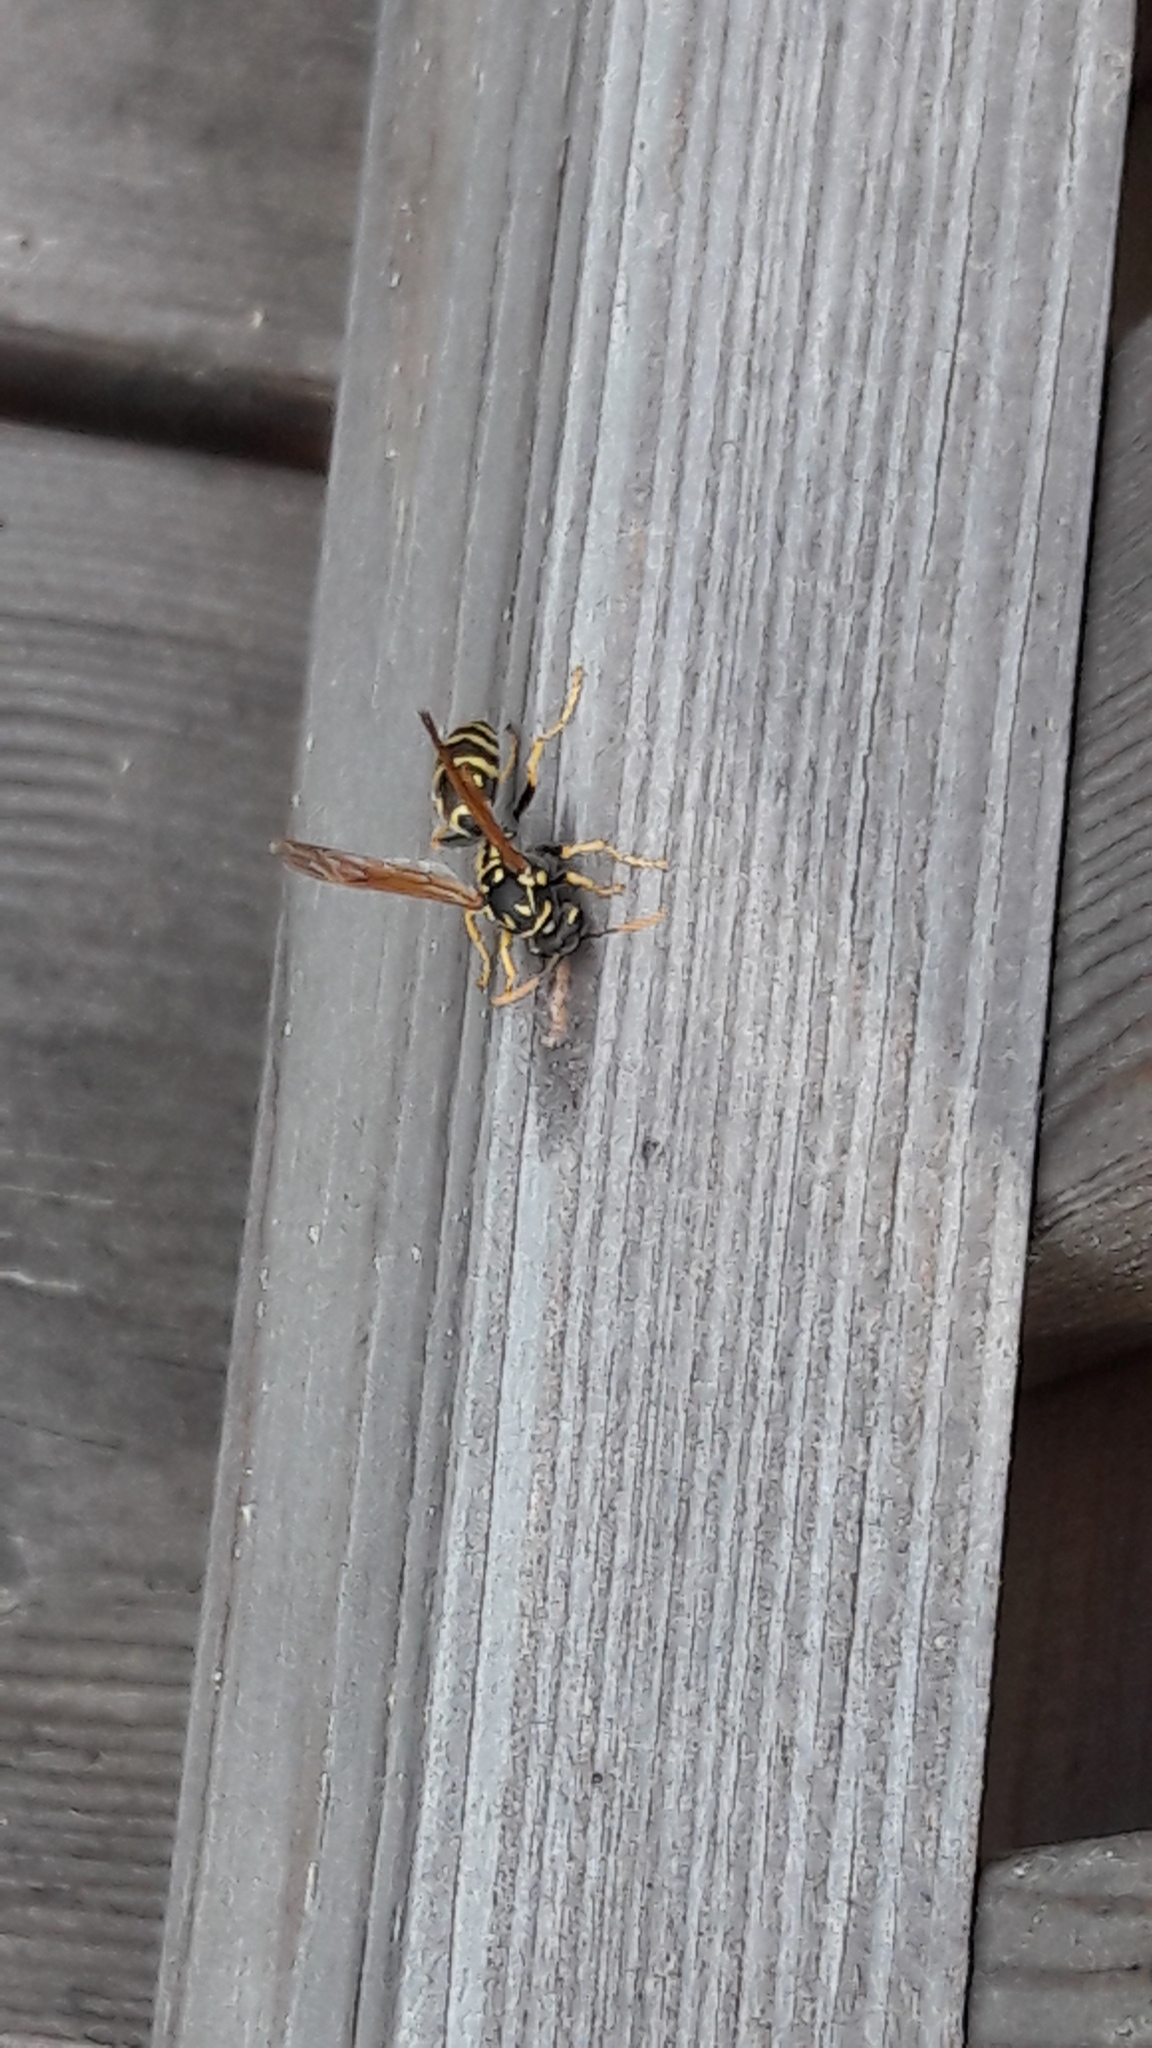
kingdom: Animalia
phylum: Arthropoda
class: Insecta
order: Hymenoptera
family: Eumenidae
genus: Polistes
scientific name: Polistes dominula
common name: Paper wasp
